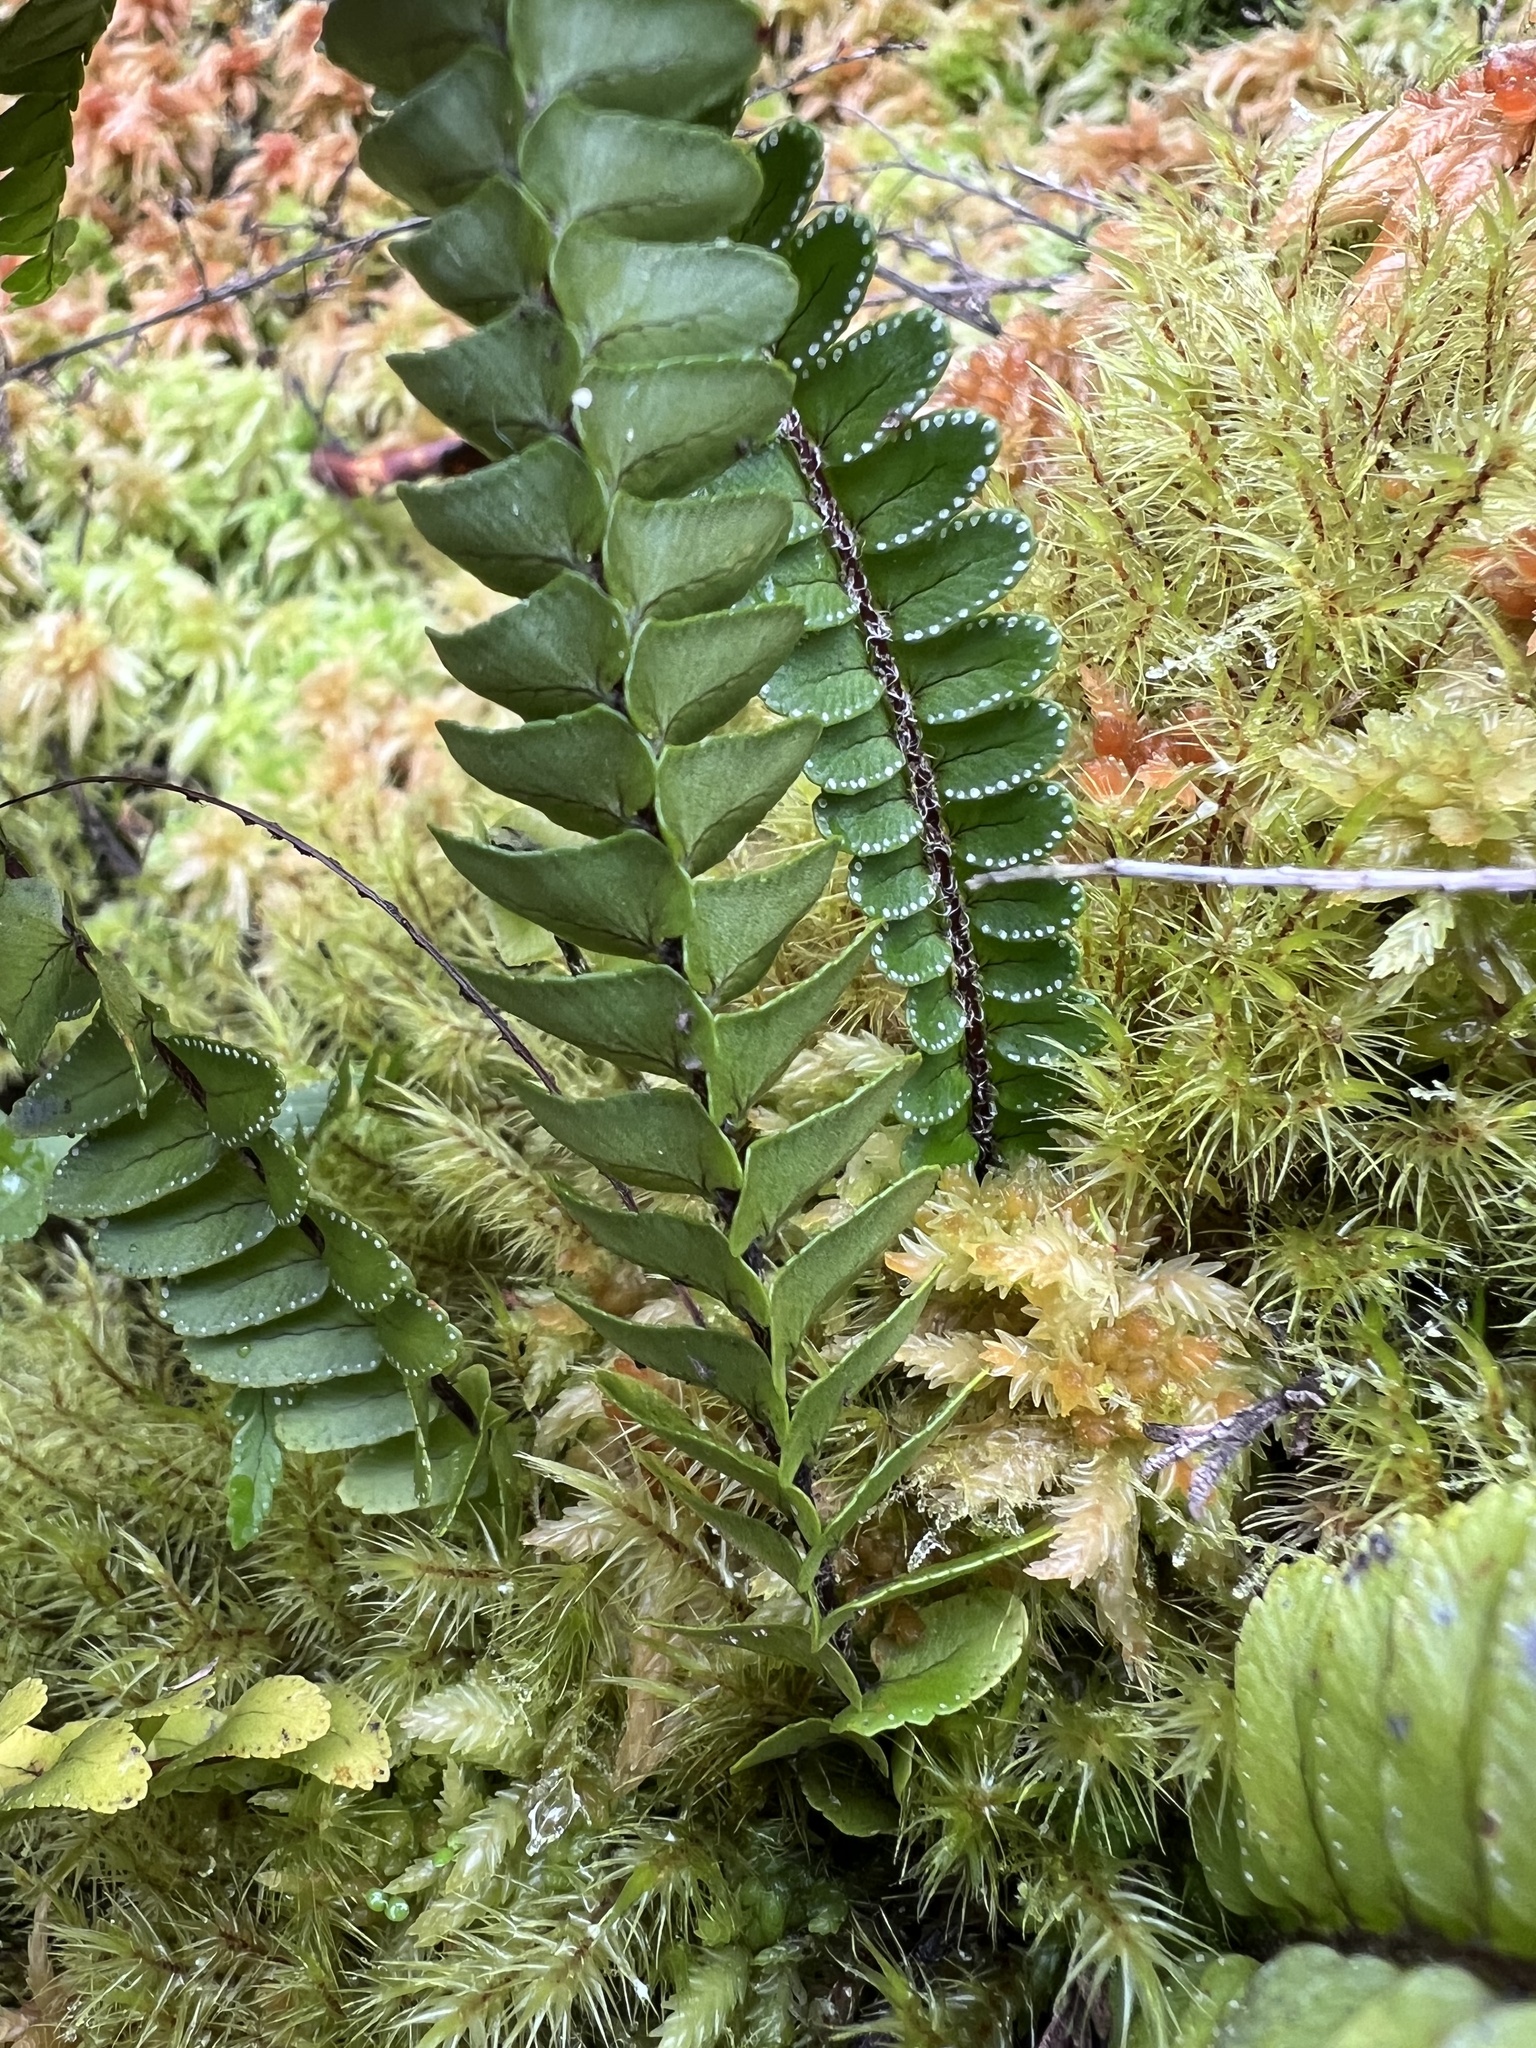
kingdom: Plantae
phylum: Tracheophyta
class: Polypodiopsida
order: Polypodiales
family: Nephrolepidaceae
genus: Nephrolepis
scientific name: Nephrolepis flexuosa
